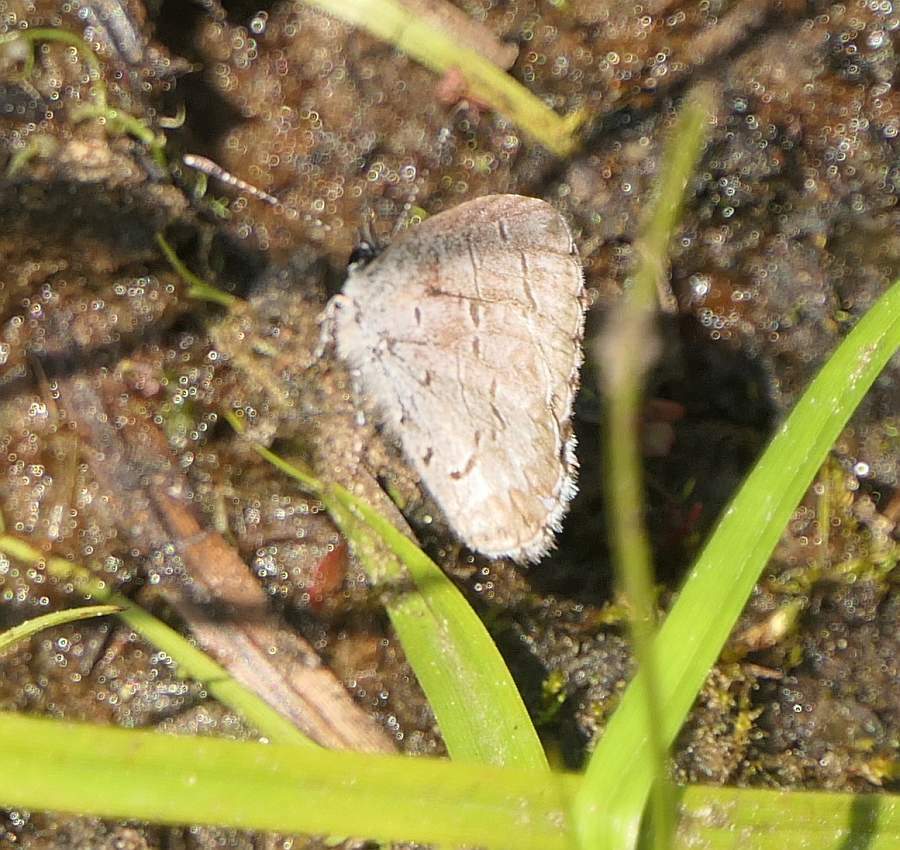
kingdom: Animalia
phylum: Arthropoda
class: Insecta
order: Lepidoptera
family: Lycaenidae
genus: Celastrina
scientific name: Celastrina lucia
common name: Lucia azure
